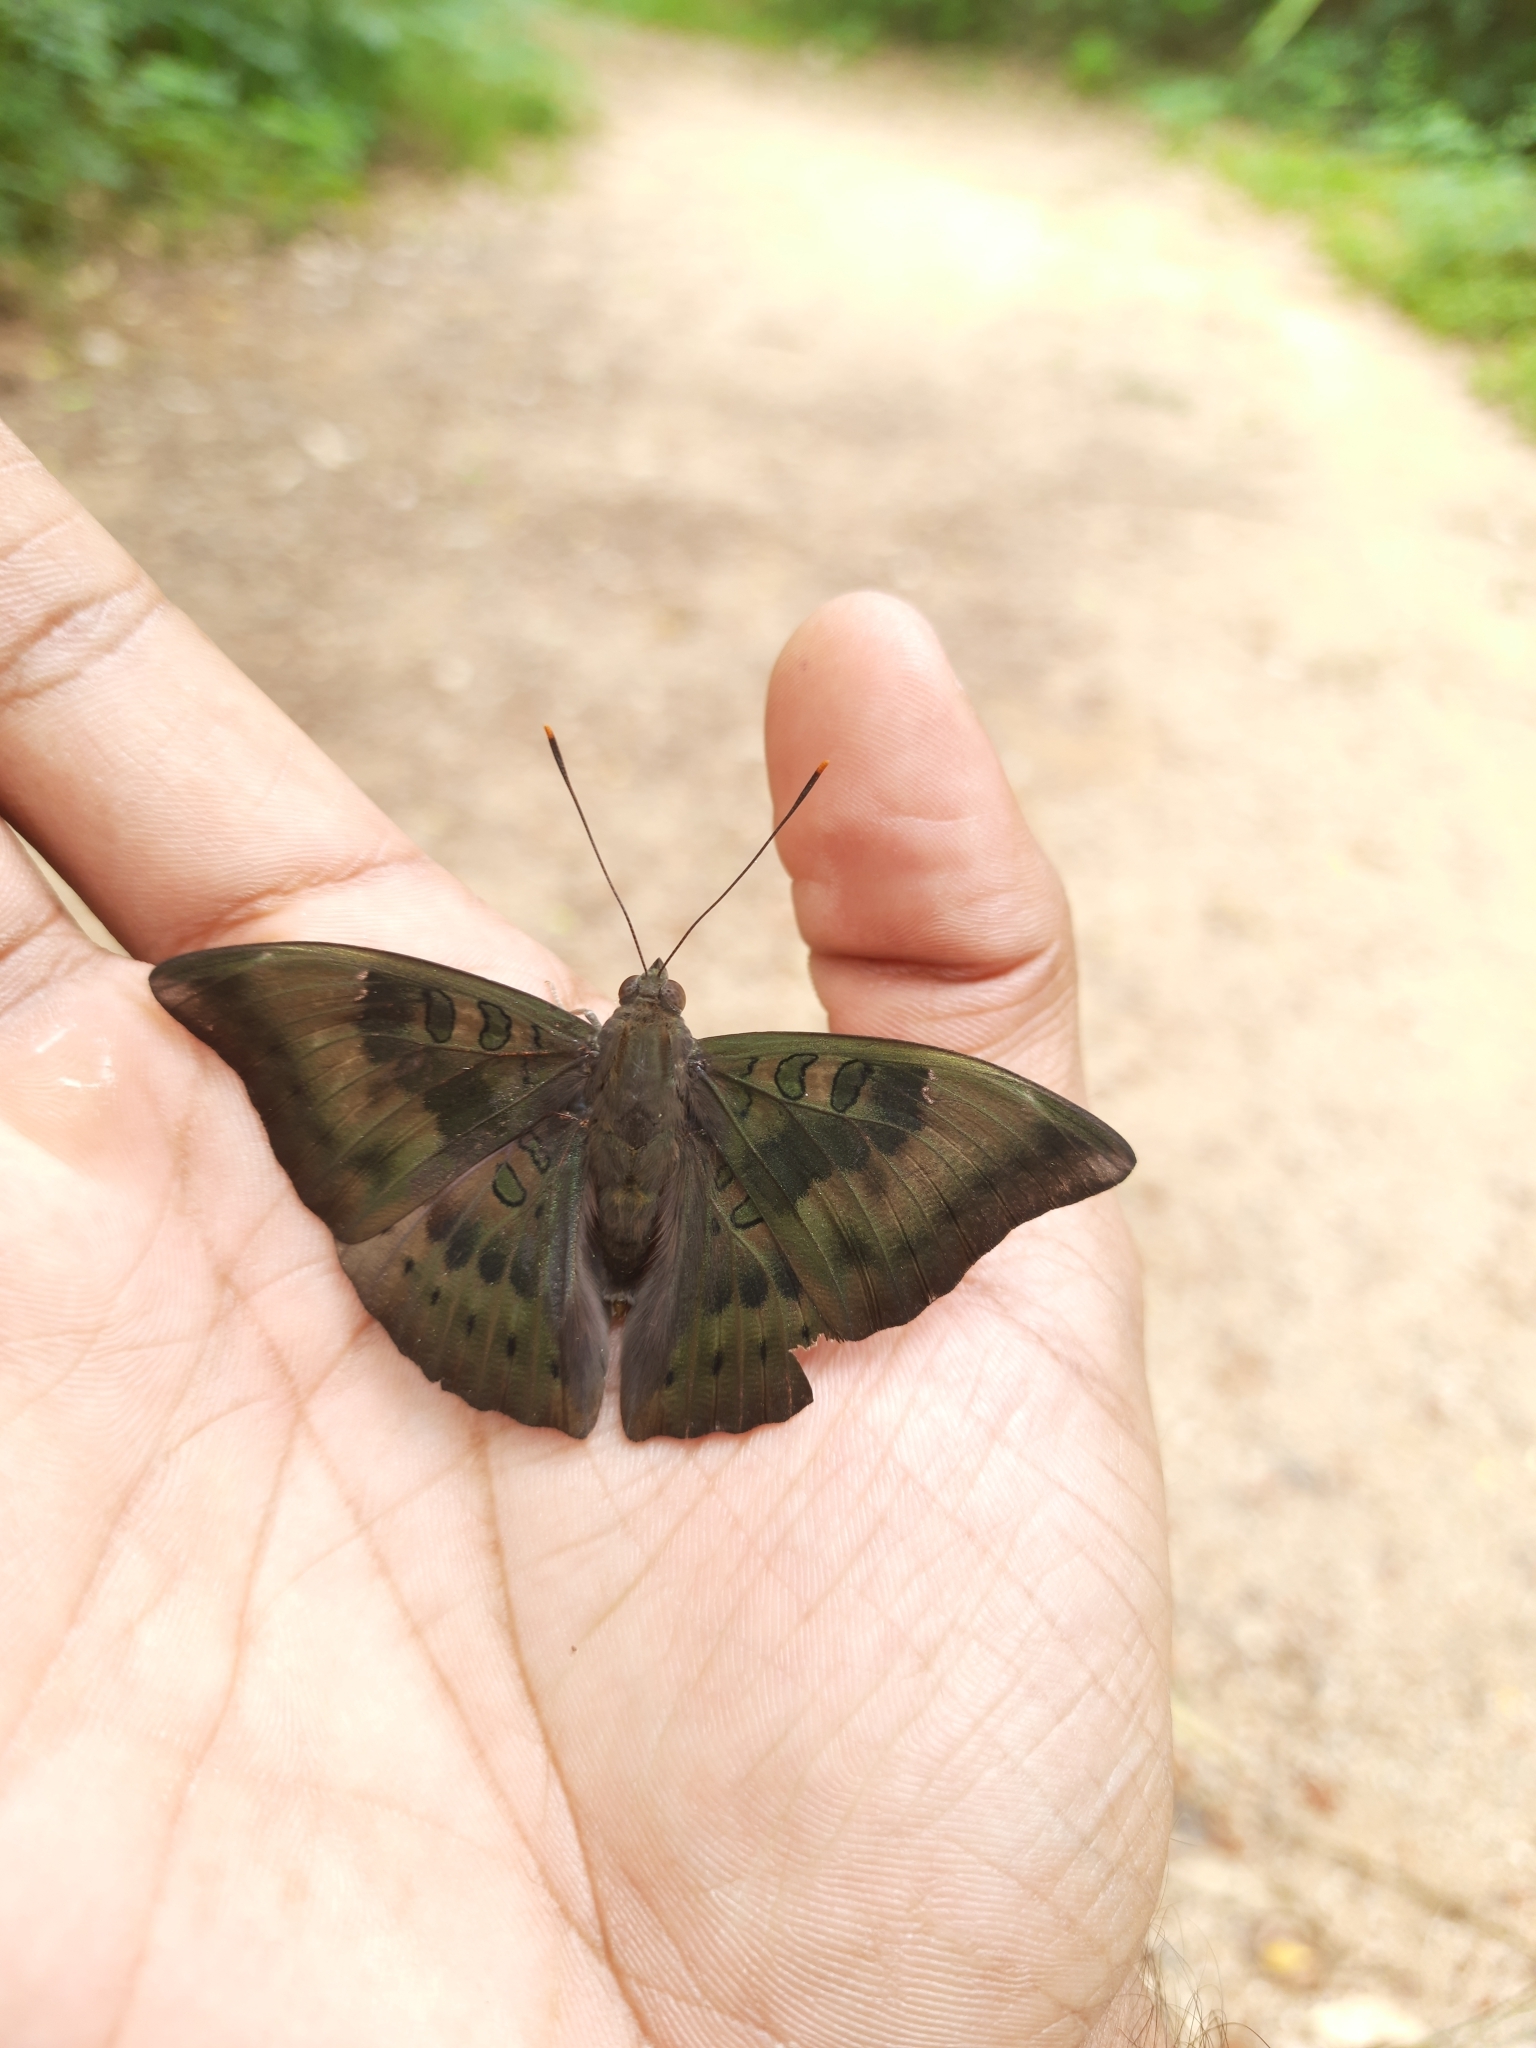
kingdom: Animalia
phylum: Arthropoda
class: Insecta
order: Lepidoptera
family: Nymphalidae
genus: Euthalia
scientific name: Euthalia aconthea
